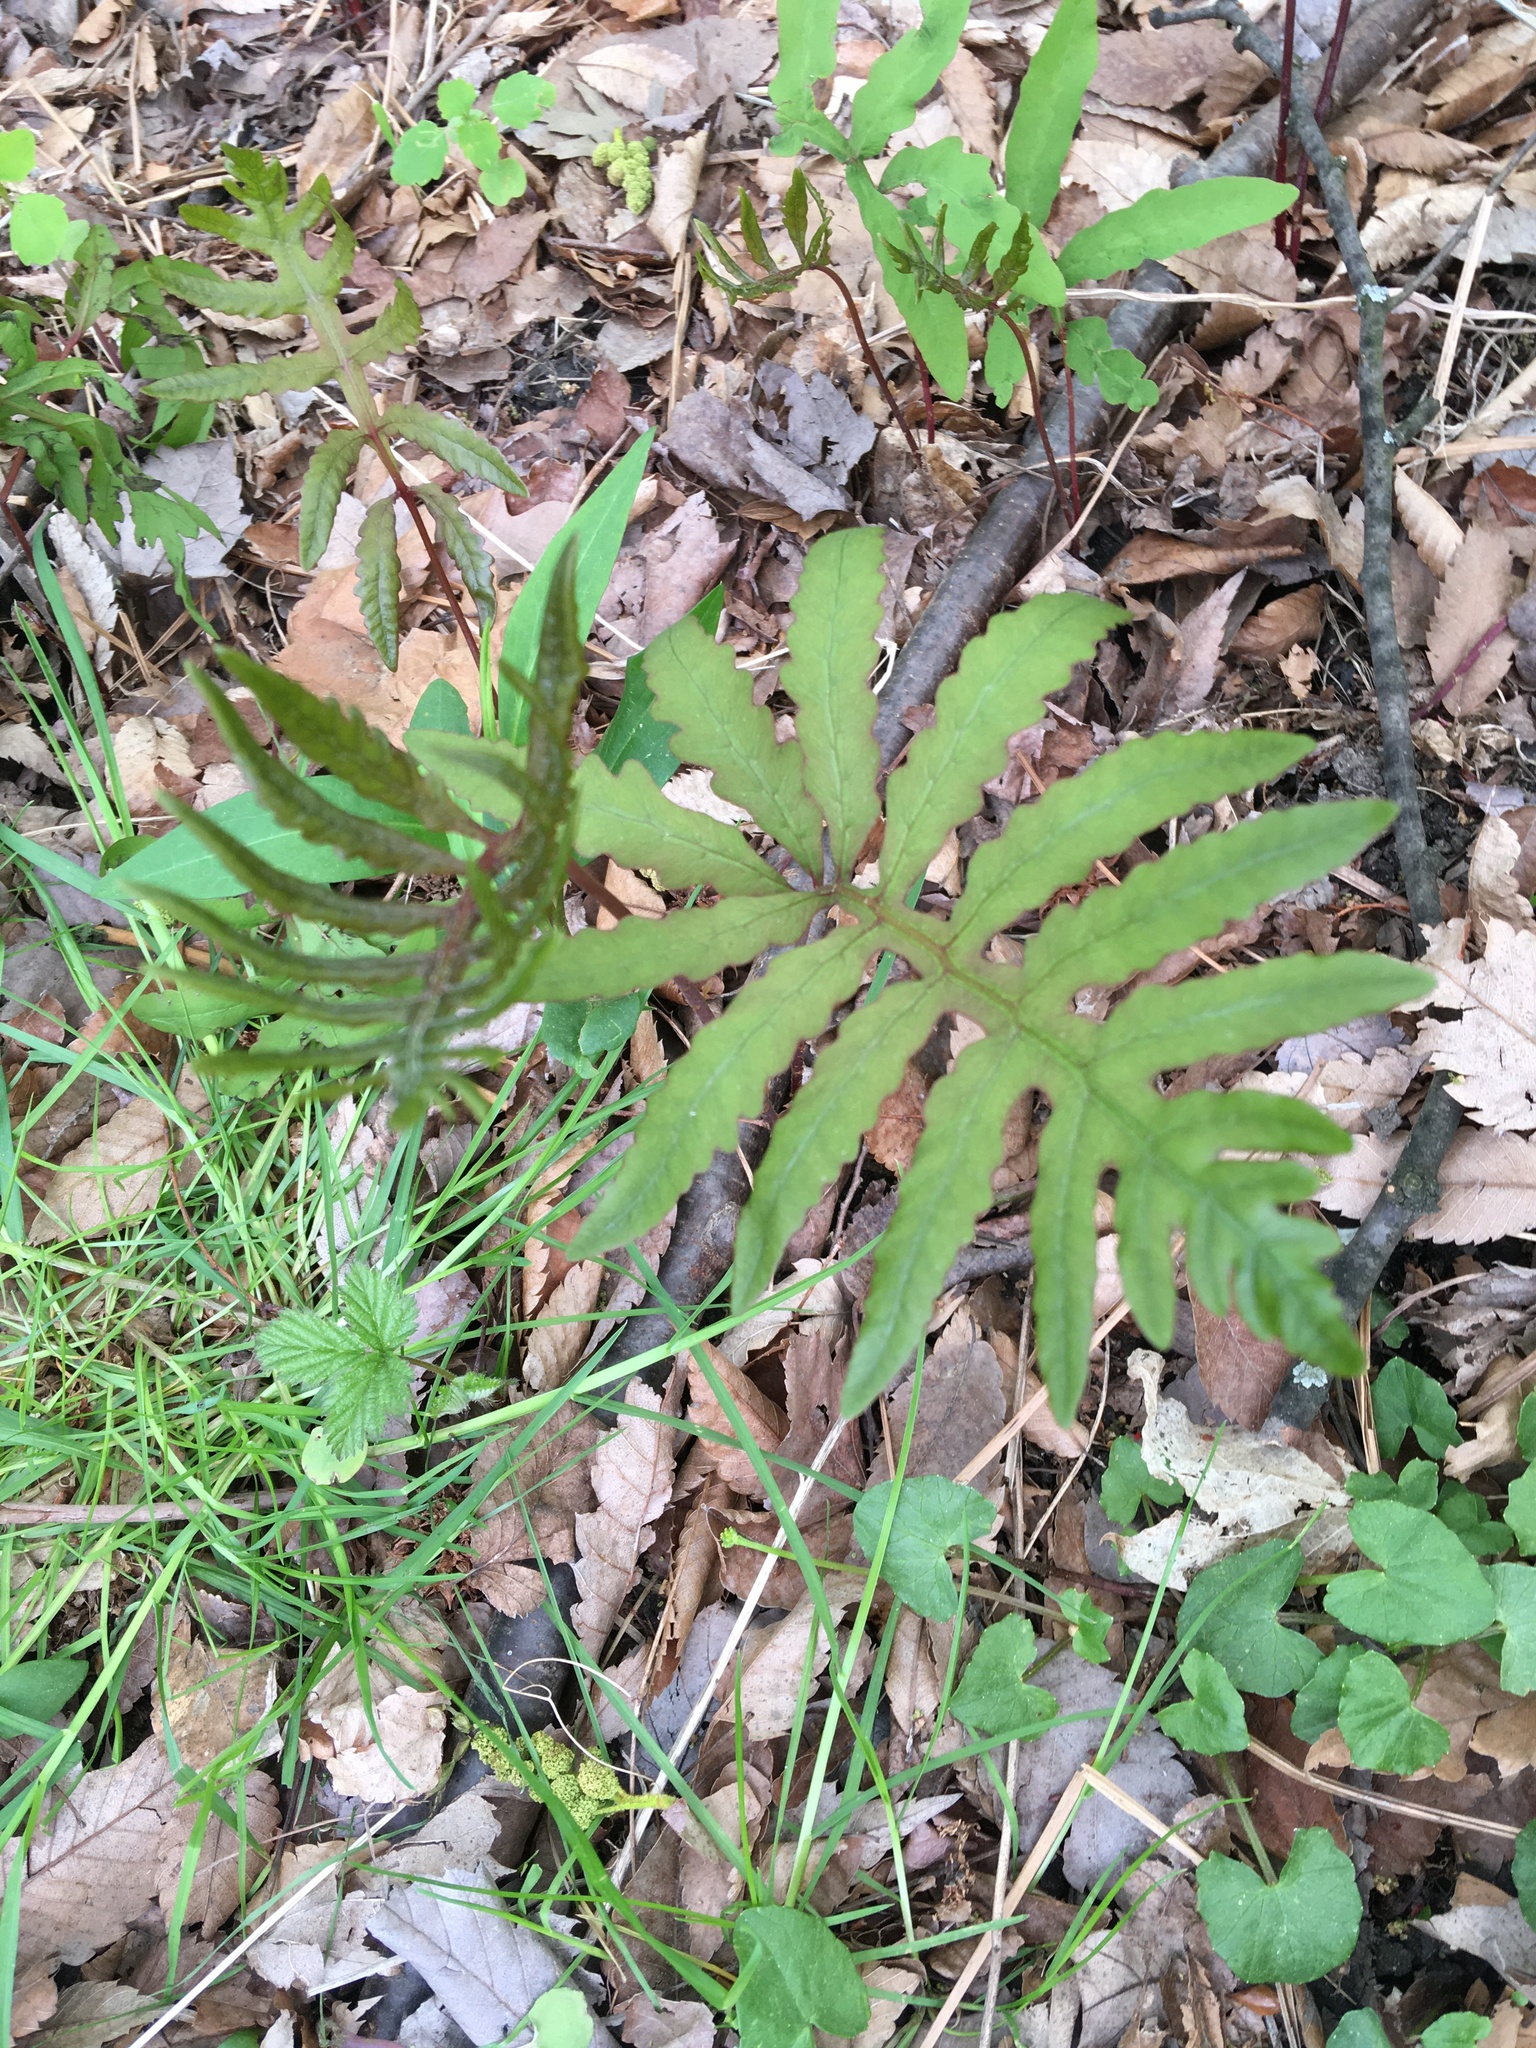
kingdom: Plantae
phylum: Tracheophyta
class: Polypodiopsida
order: Polypodiales
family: Onocleaceae
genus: Onoclea
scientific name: Onoclea sensibilis
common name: Sensitive fern
